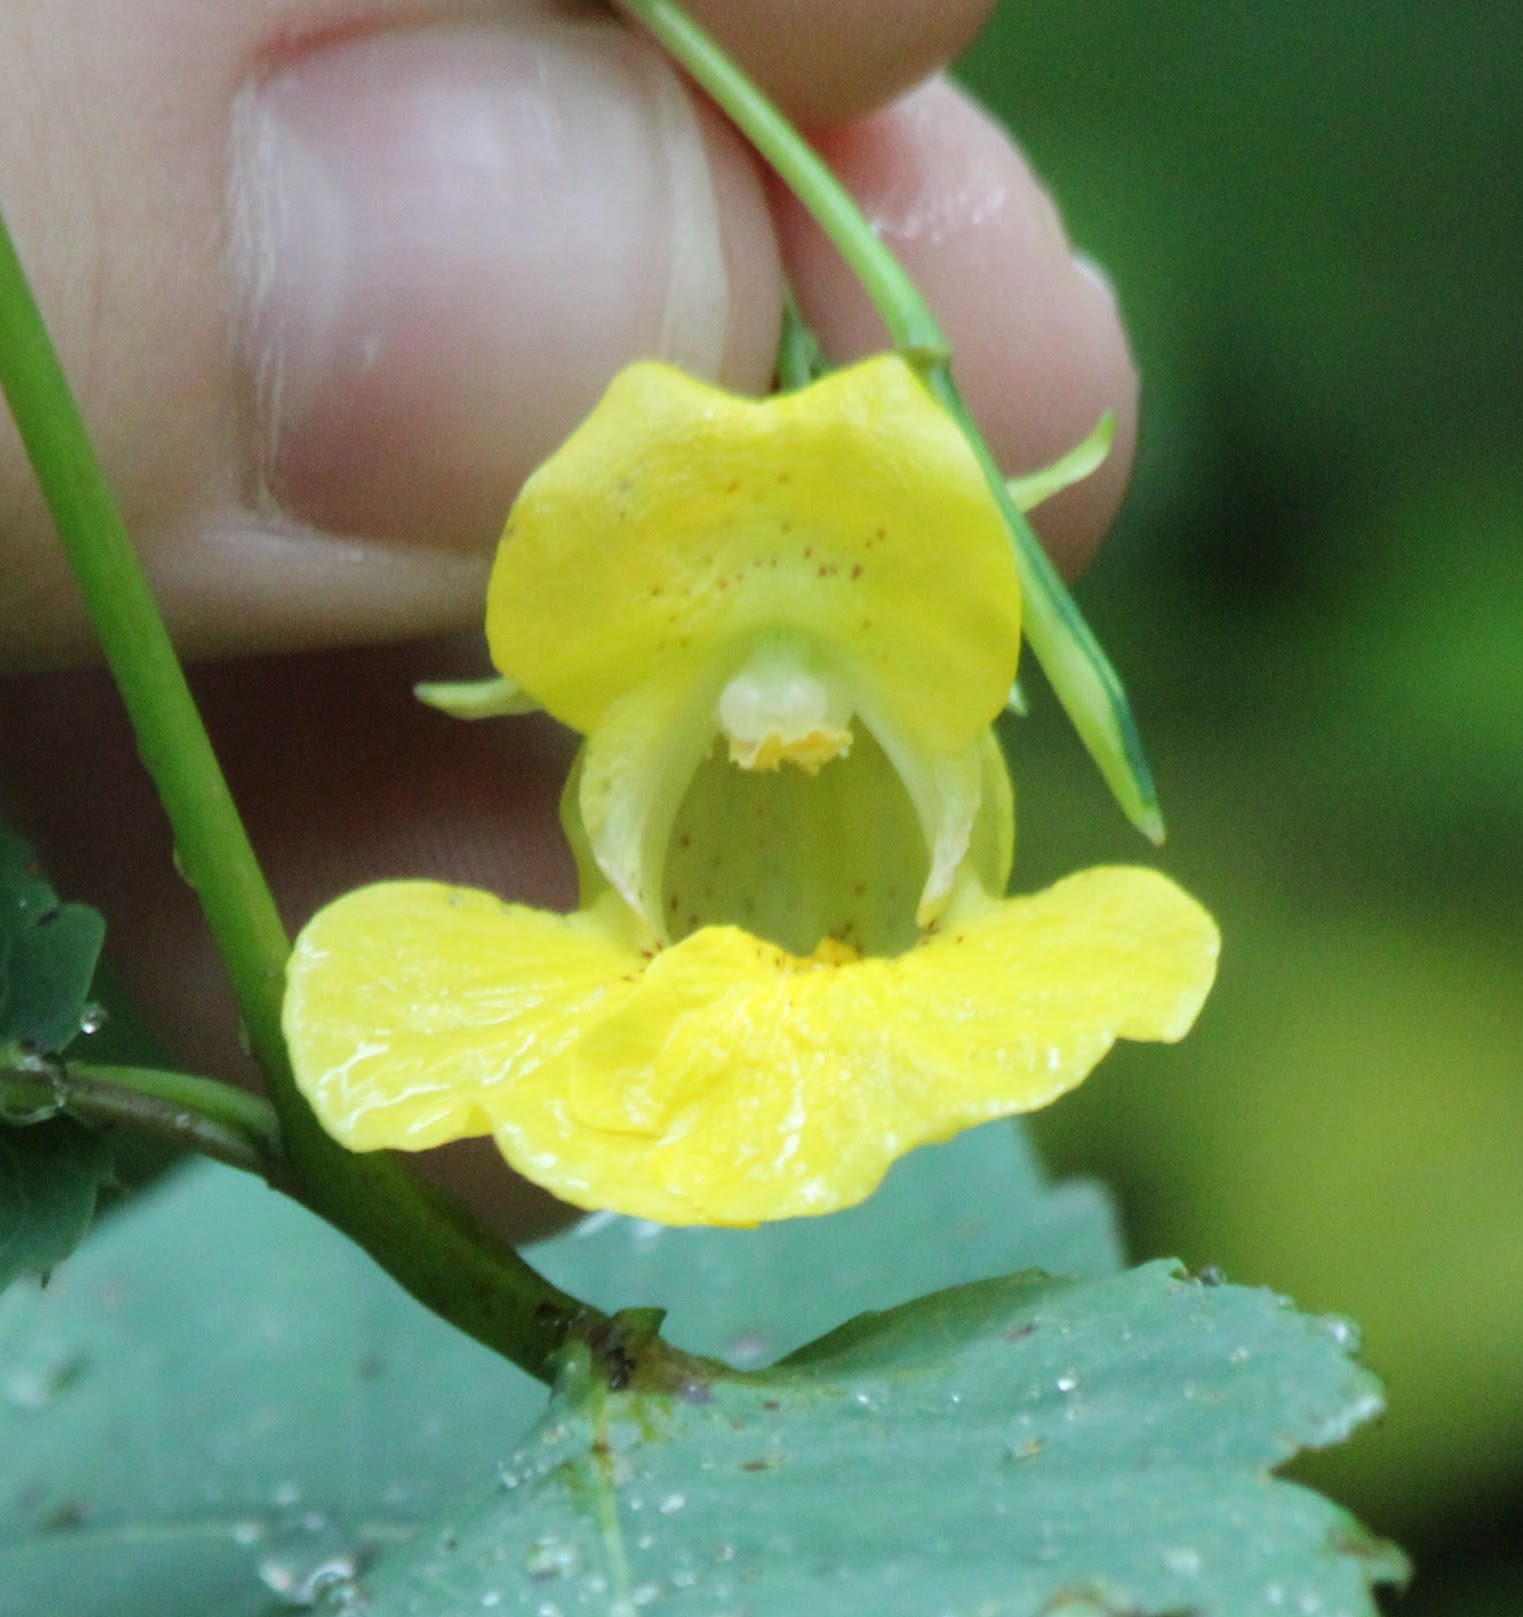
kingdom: Plantae
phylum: Tracheophyta
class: Magnoliopsida
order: Ericales
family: Balsaminaceae
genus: Impatiens
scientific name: Impatiens pallida
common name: Pale snapweed
